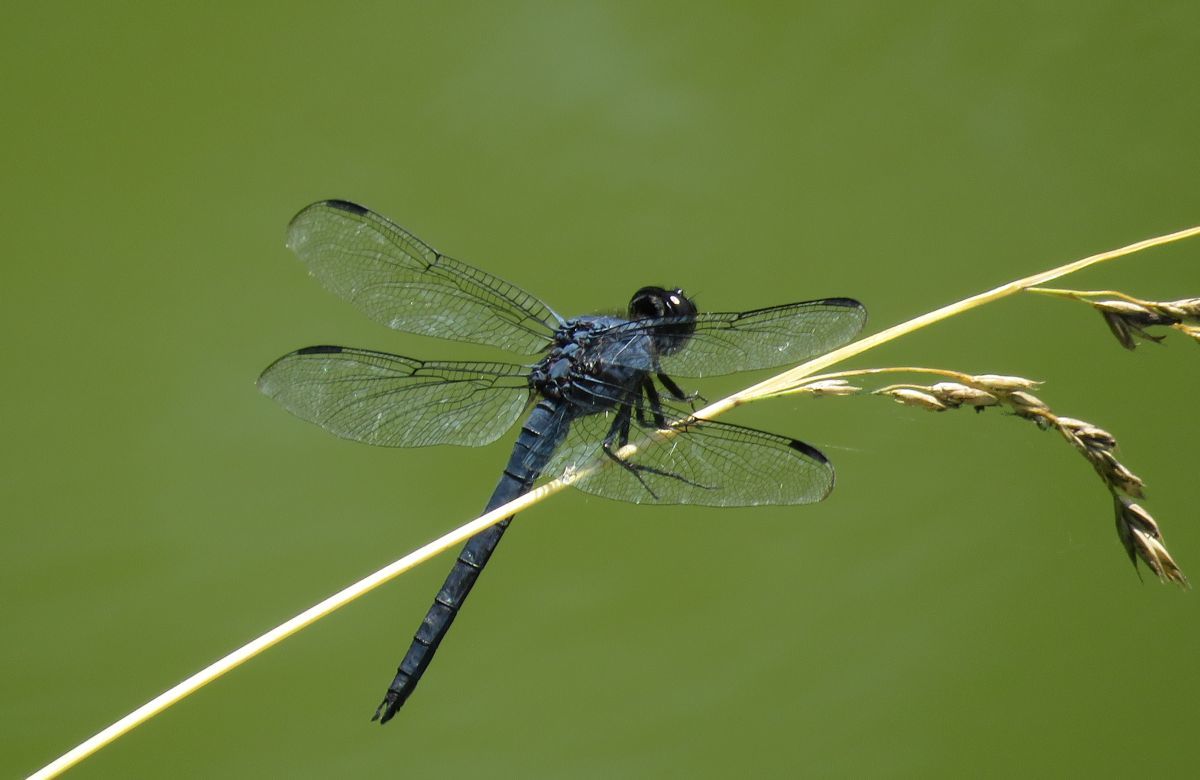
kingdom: Animalia
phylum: Arthropoda
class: Insecta
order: Odonata
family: Libellulidae
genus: Libellula
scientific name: Libellula incesta
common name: Slaty skimmer
